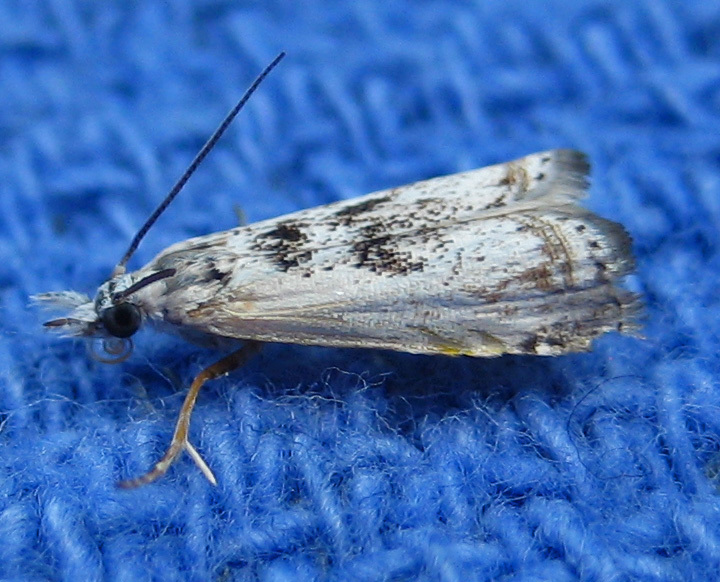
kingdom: Animalia
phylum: Arthropoda
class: Insecta
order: Lepidoptera
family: Crambidae
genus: Microcrambus
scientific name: Microcrambus immunellus
